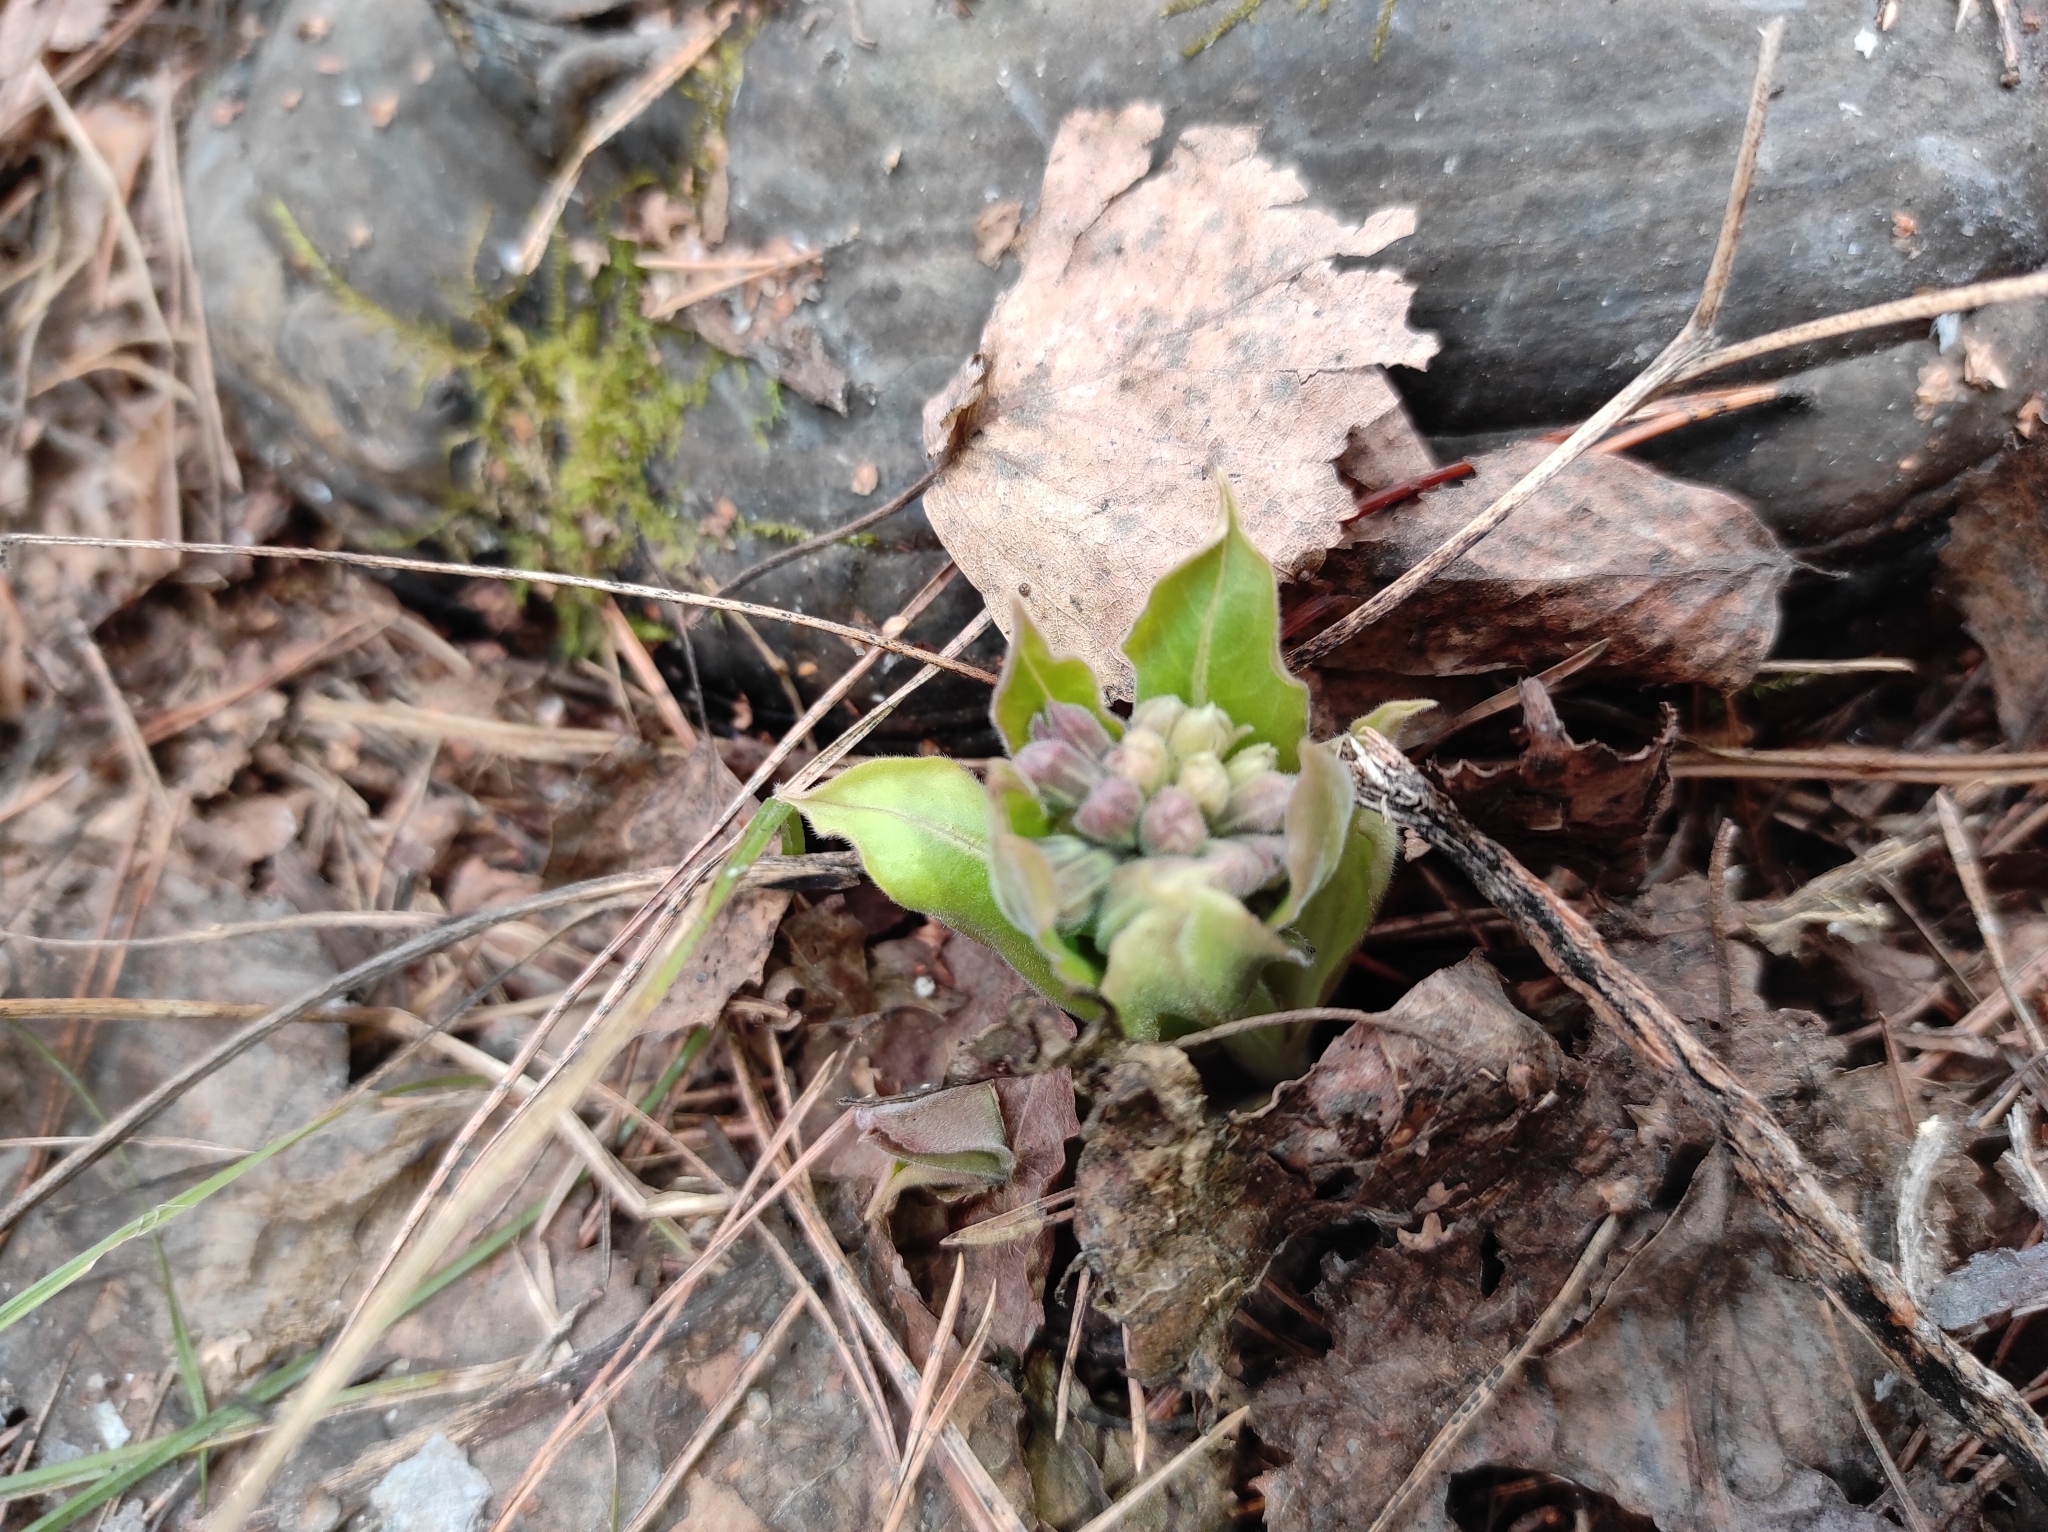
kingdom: Plantae
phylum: Tracheophyta
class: Magnoliopsida
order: Boraginales
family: Boraginaceae
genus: Pulmonaria
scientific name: Pulmonaria mollis
